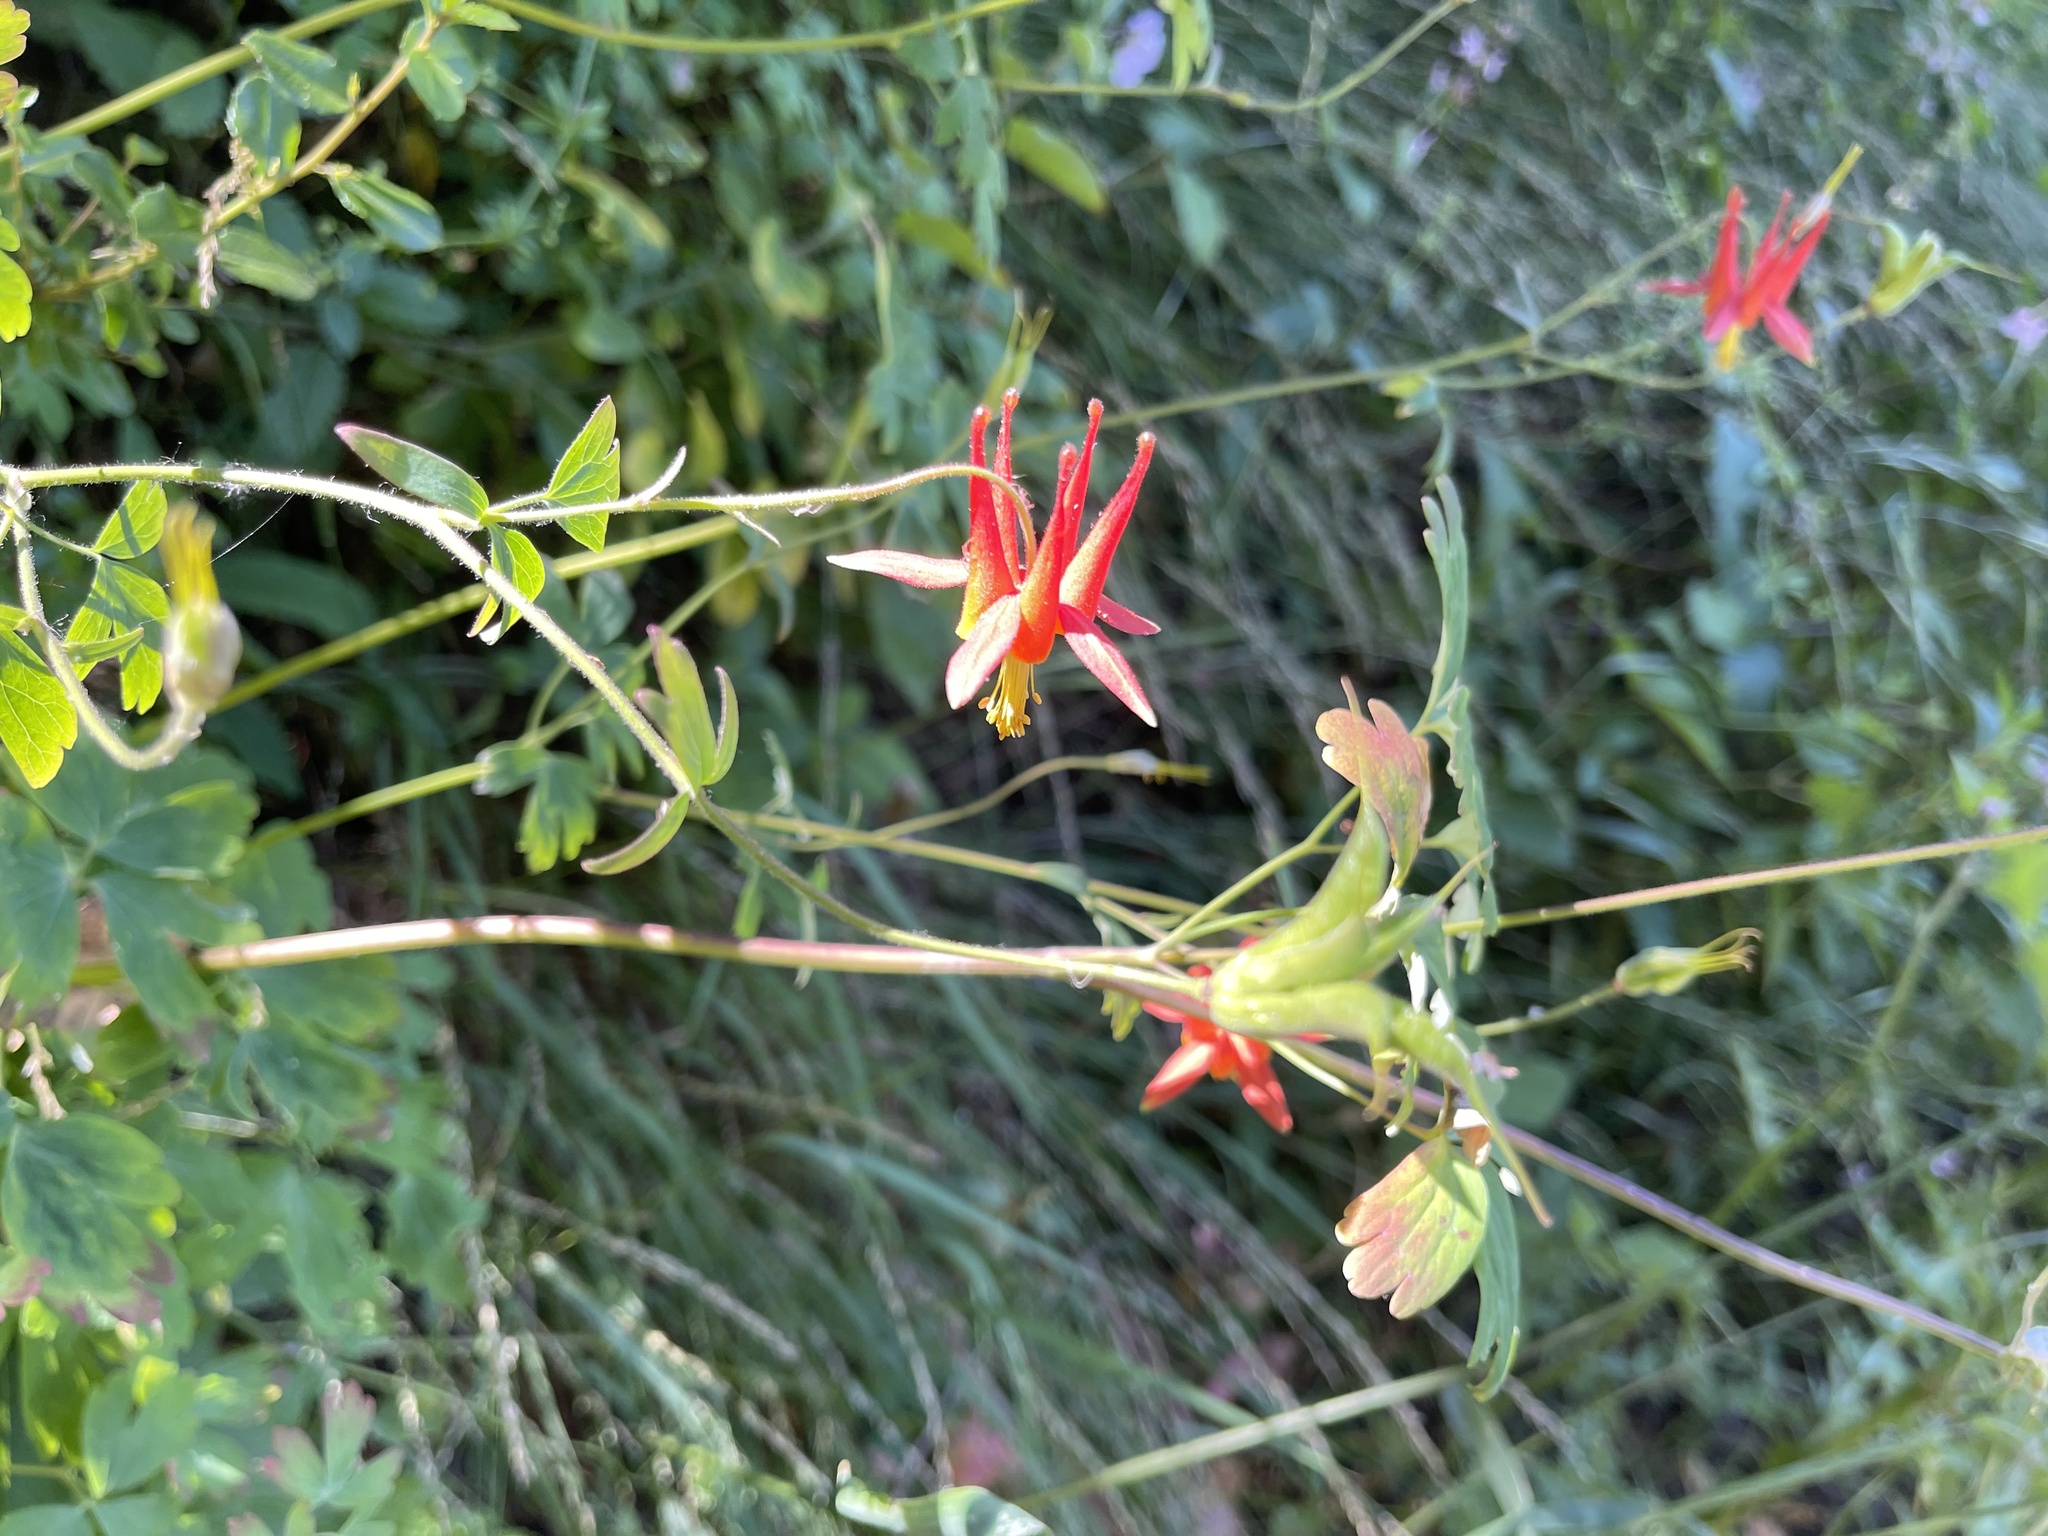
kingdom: Plantae
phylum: Tracheophyta
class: Magnoliopsida
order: Ranunculales
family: Ranunculaceae
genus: Aquilegia
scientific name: Aquilegia formosa
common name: Sitka columbine
